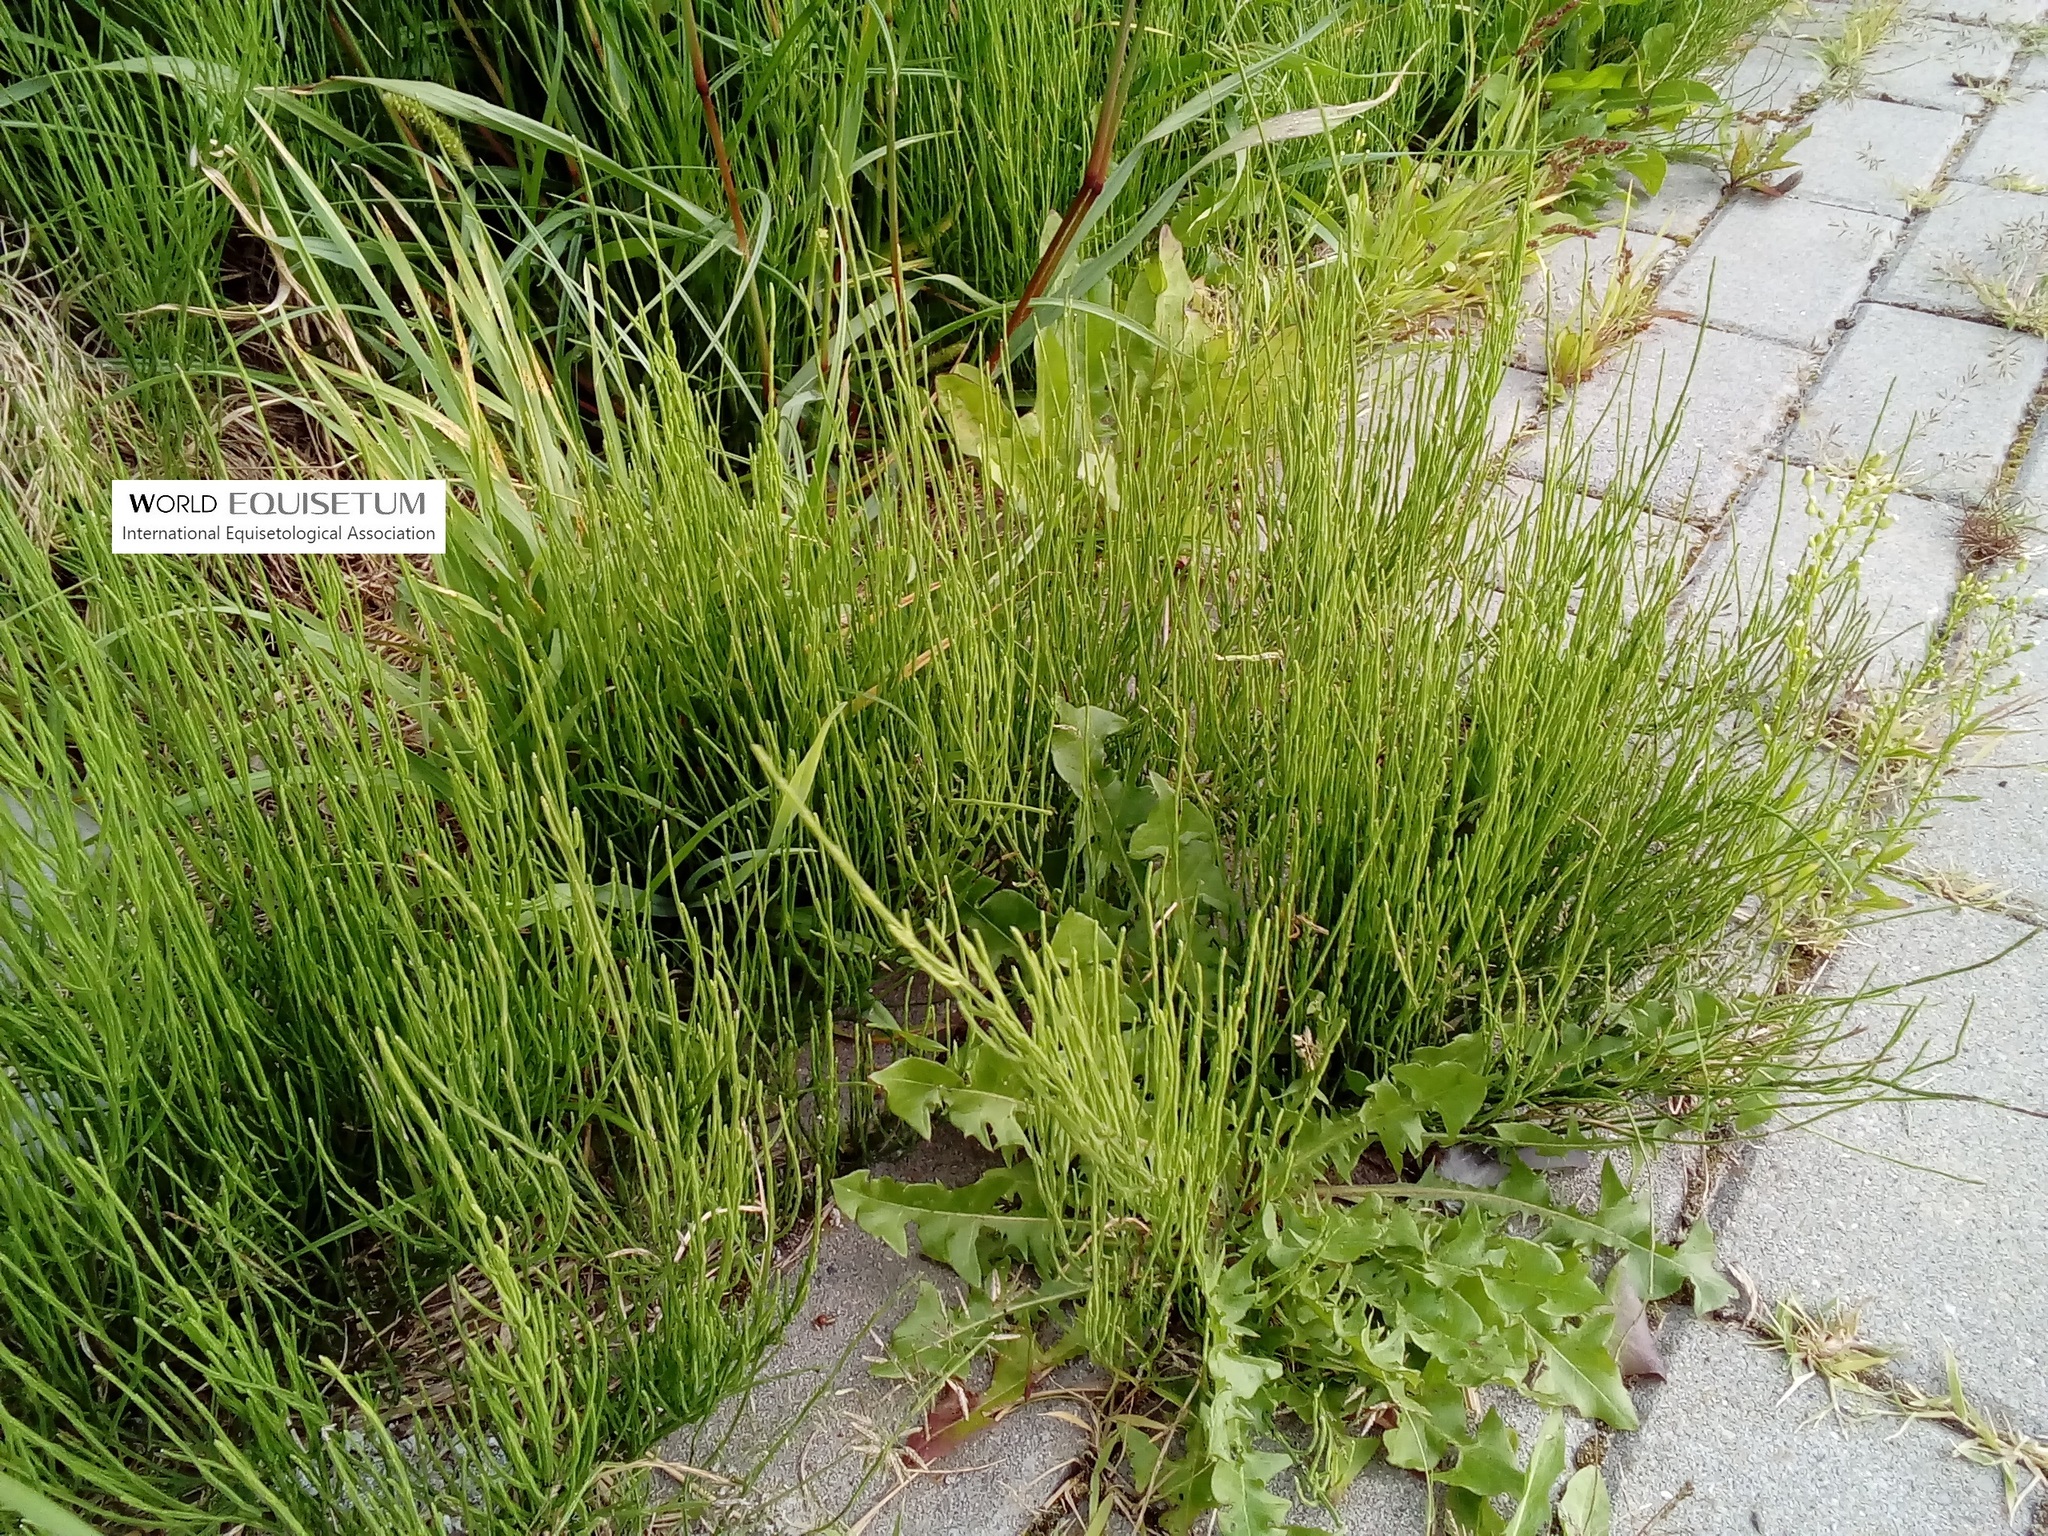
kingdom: Plantae
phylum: Tracheophyta
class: Polypodiopsida
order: Equisetales
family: Equisetaceae
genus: Equisetum
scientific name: Equisetum arvense
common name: Field horsetail
